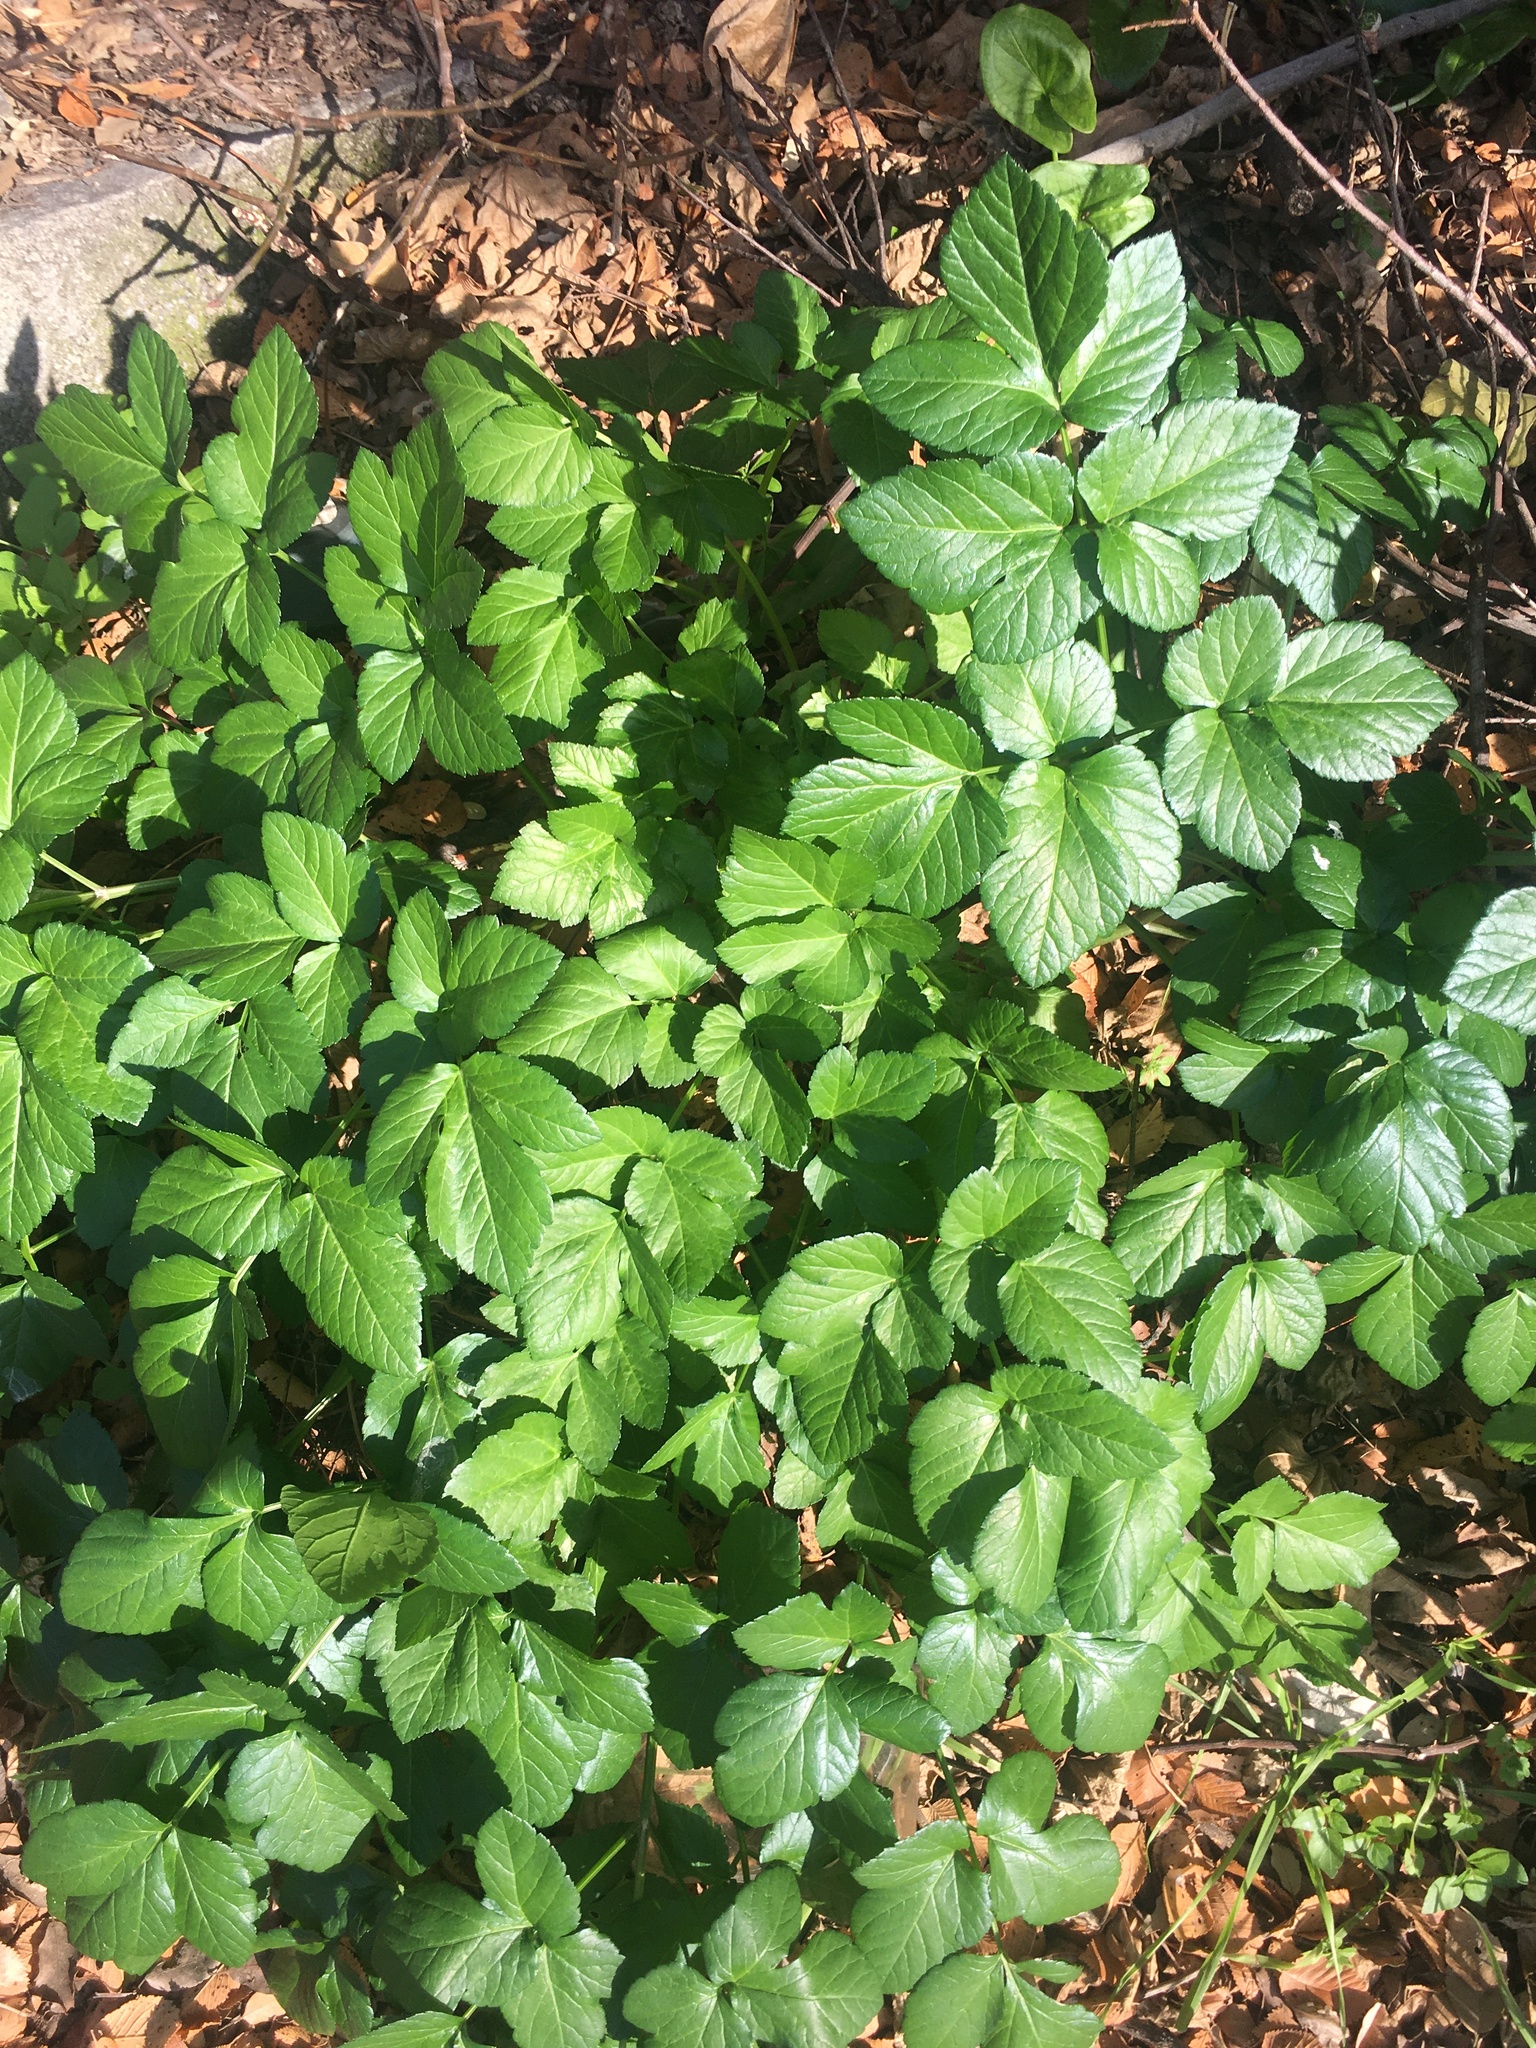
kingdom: Plantae
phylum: Tracheophyta
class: Magnoliopsida
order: Apiales
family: Apiaceae
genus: Smyrnium
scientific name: Smyrnium olusatrum
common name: Alexanders
